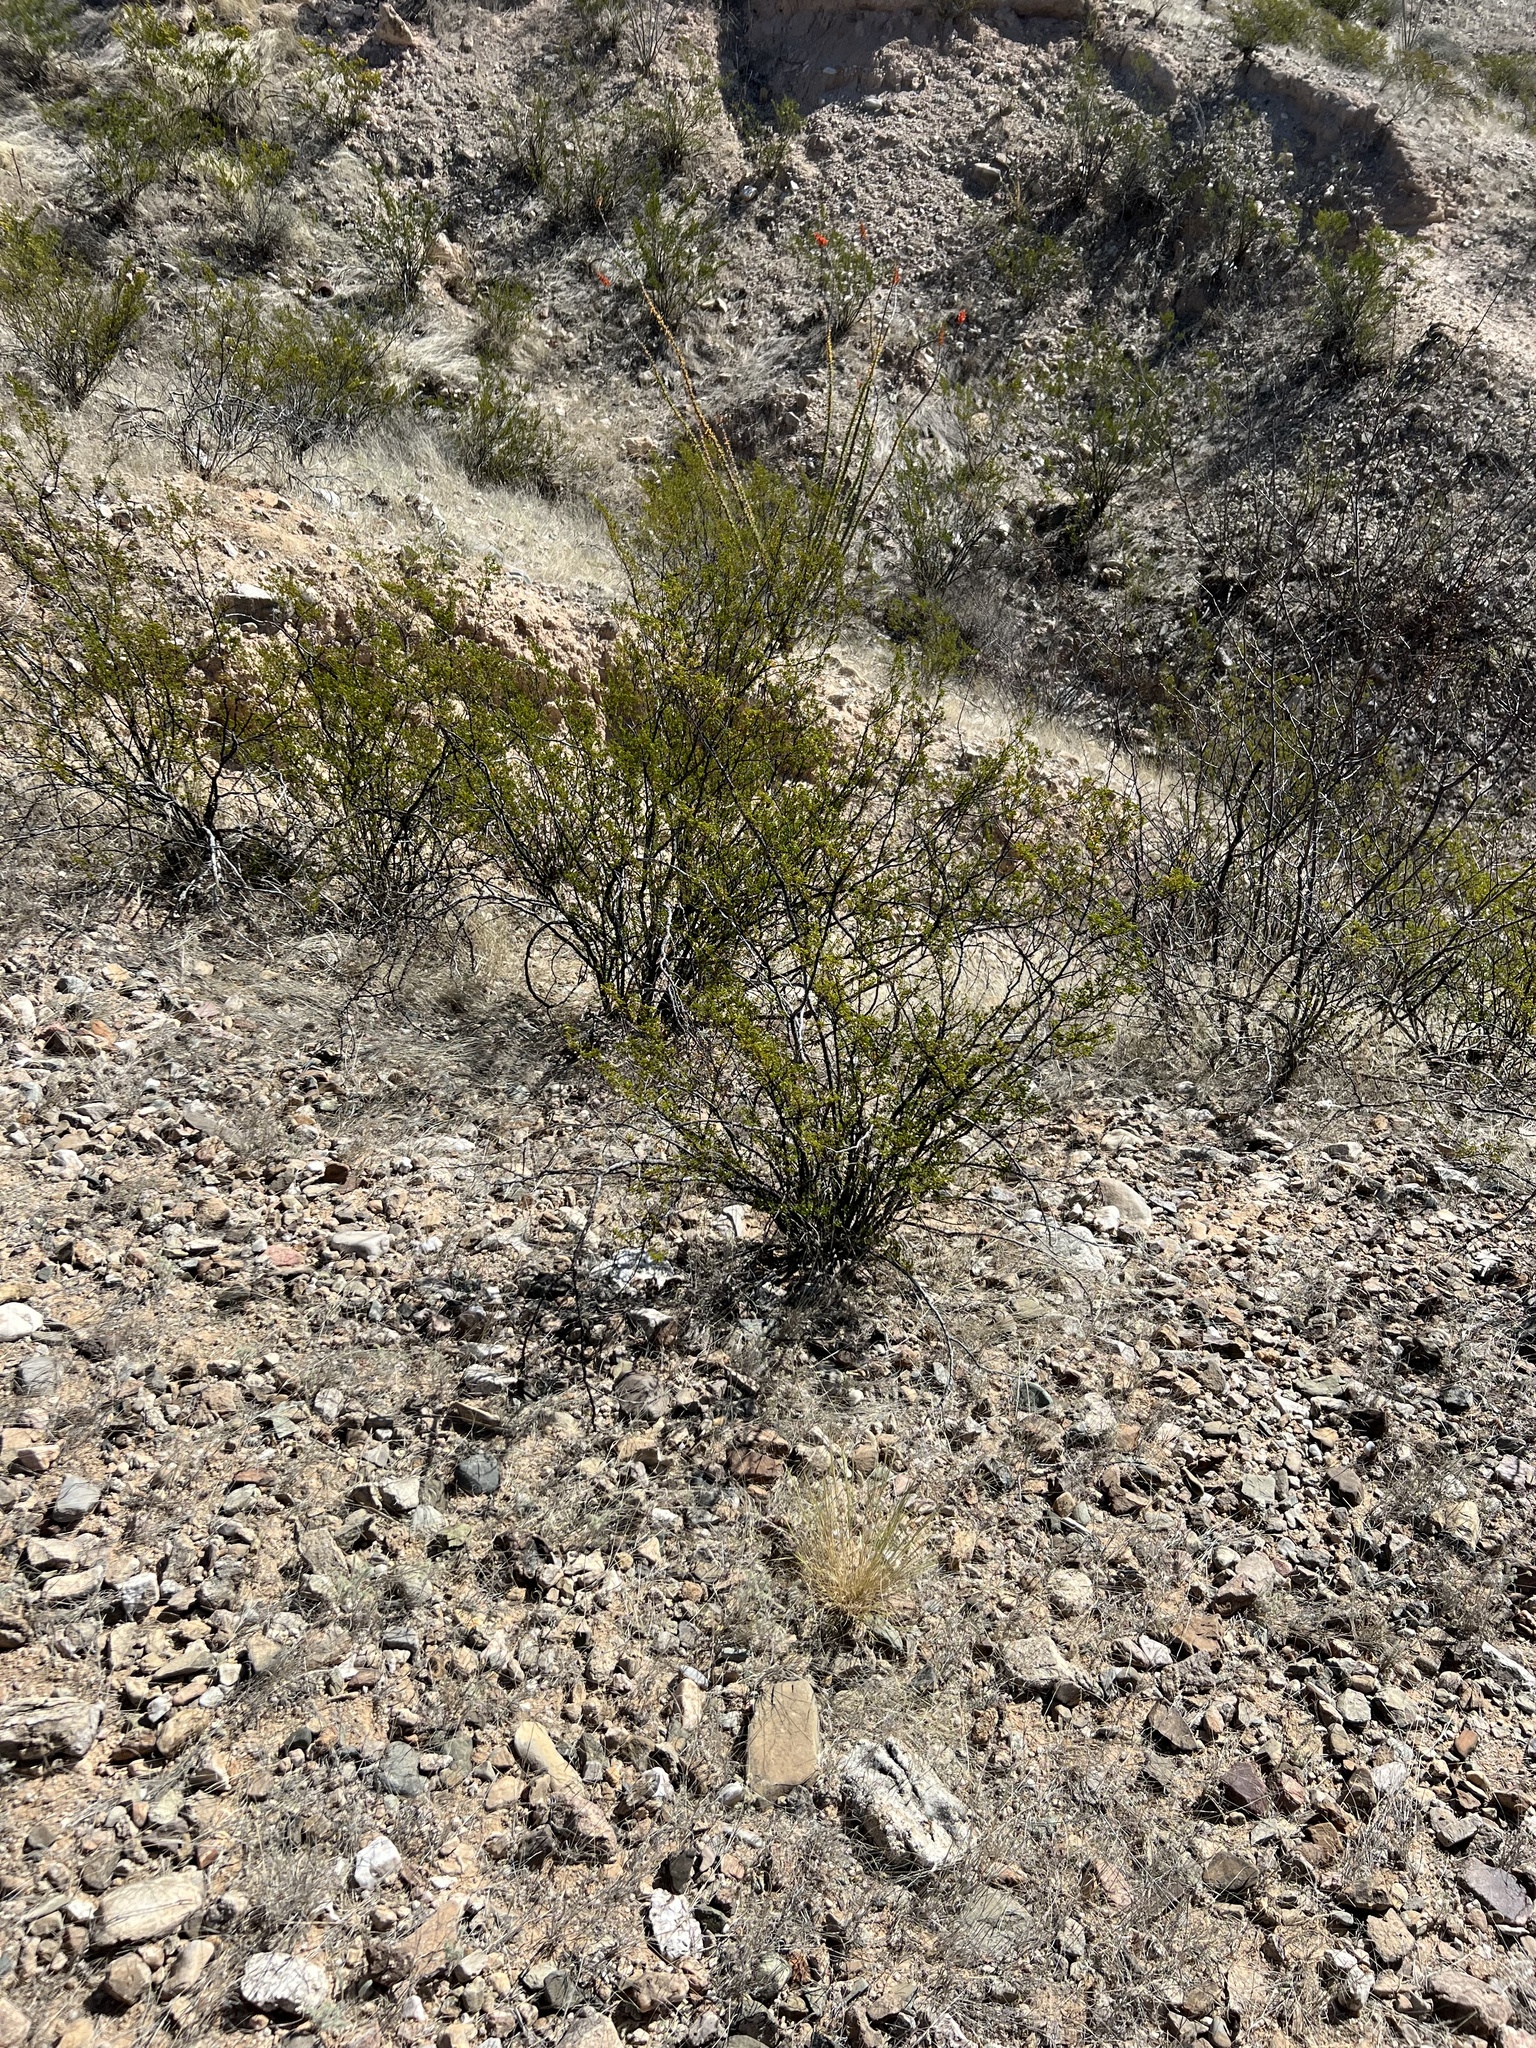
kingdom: Plantae
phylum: Tracheophyta
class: Magnoliopsida
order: Zygophyllales
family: Zygophyllaceae
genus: Larrea
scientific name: Larrea tridentata
